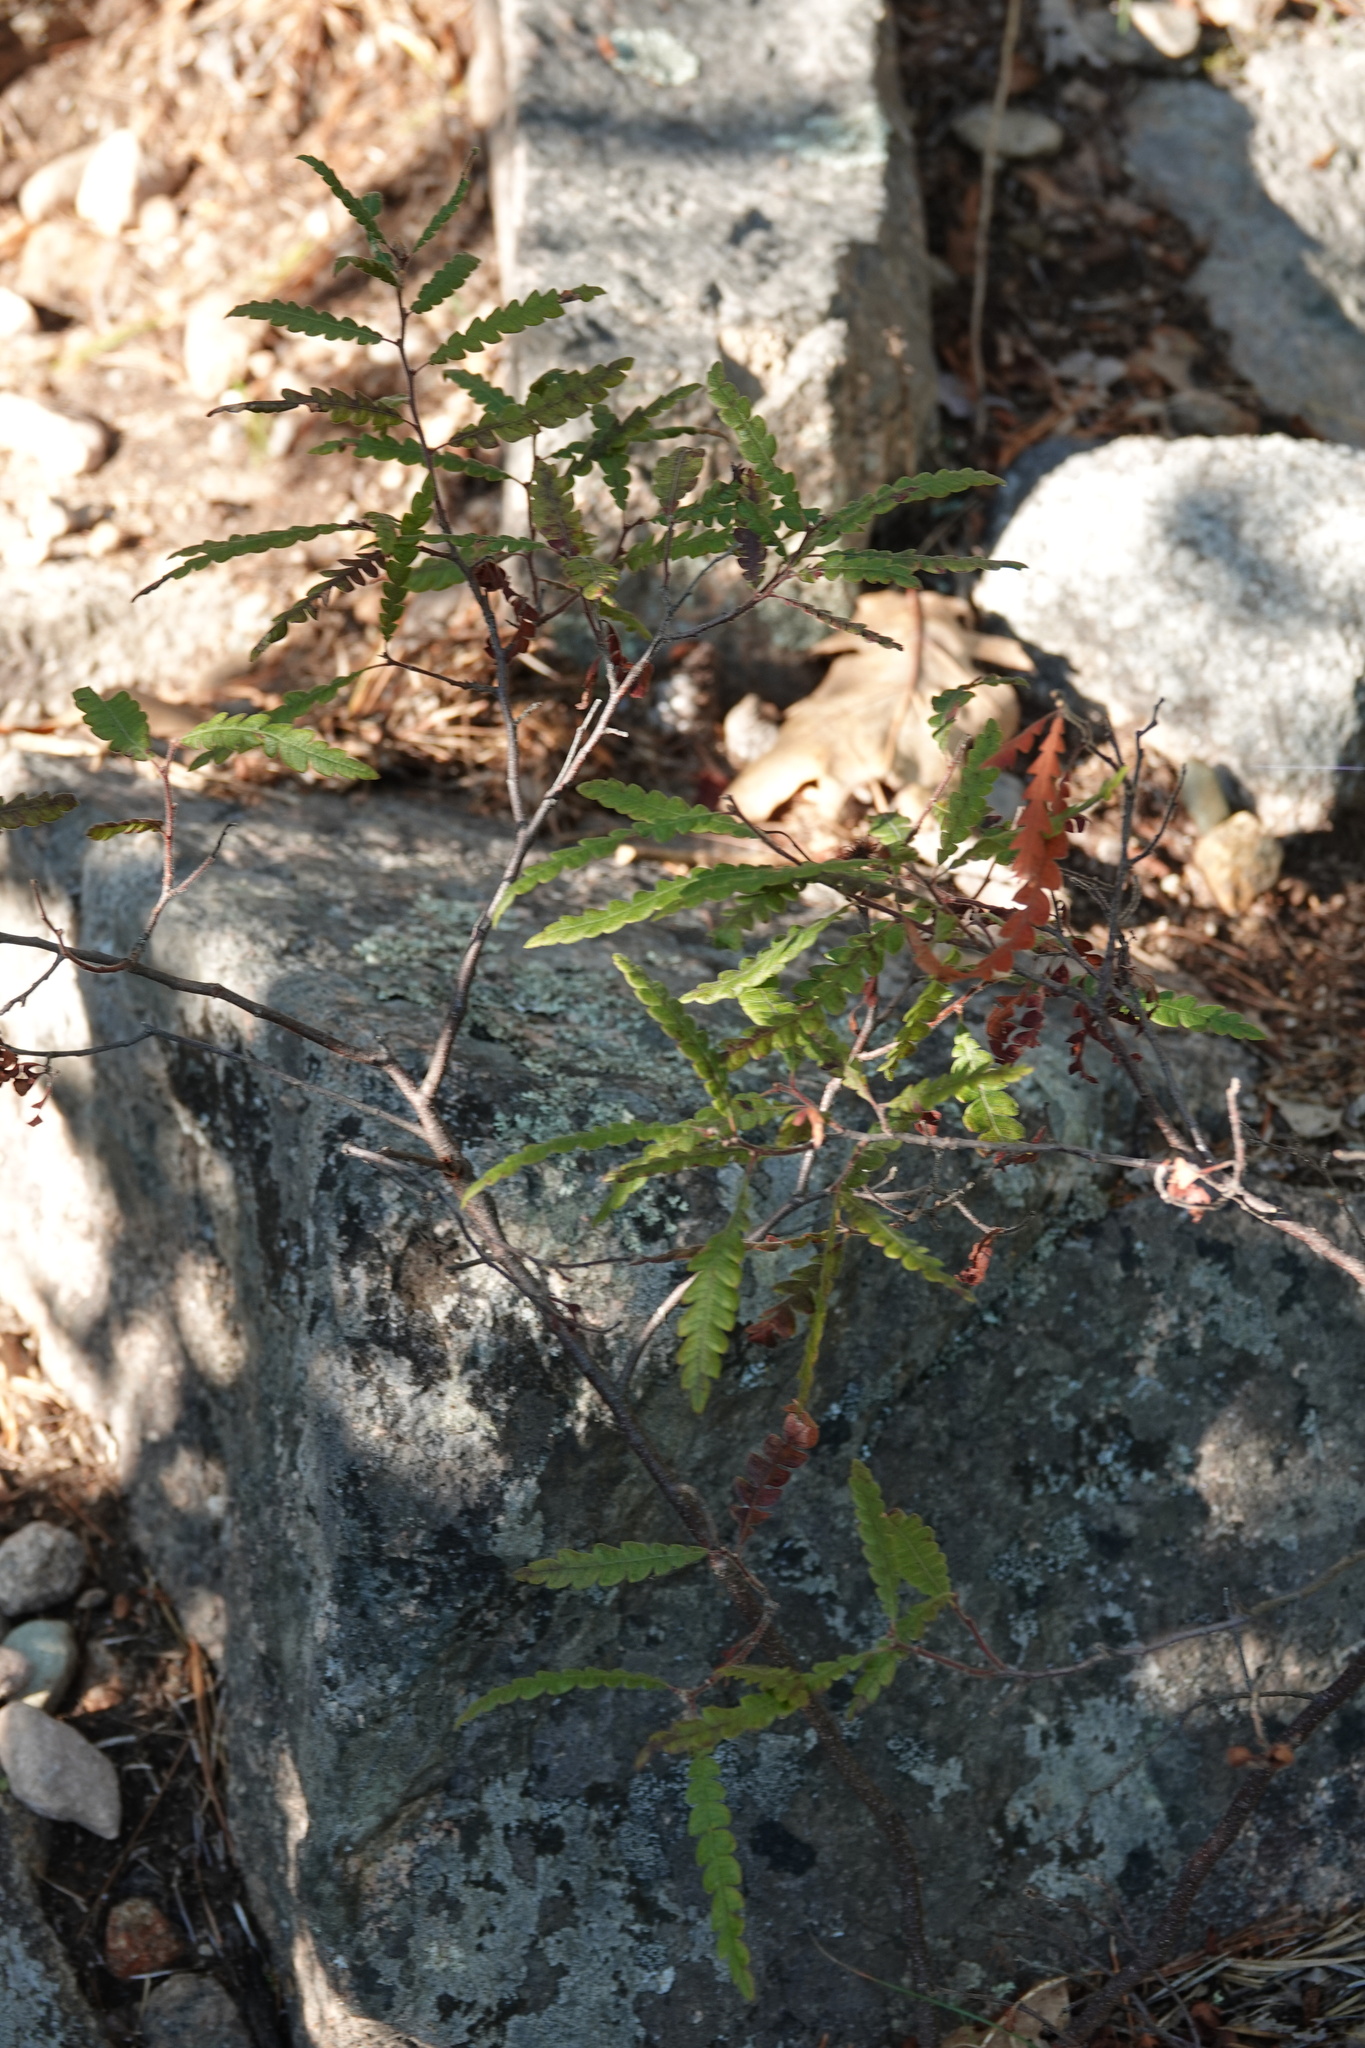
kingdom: Plantae
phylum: Tracheophyta
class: Magnoliopsida
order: Fagales
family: Myricaceae
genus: Comptonia
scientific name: Comptonia peregrina
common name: Sweet-fern
